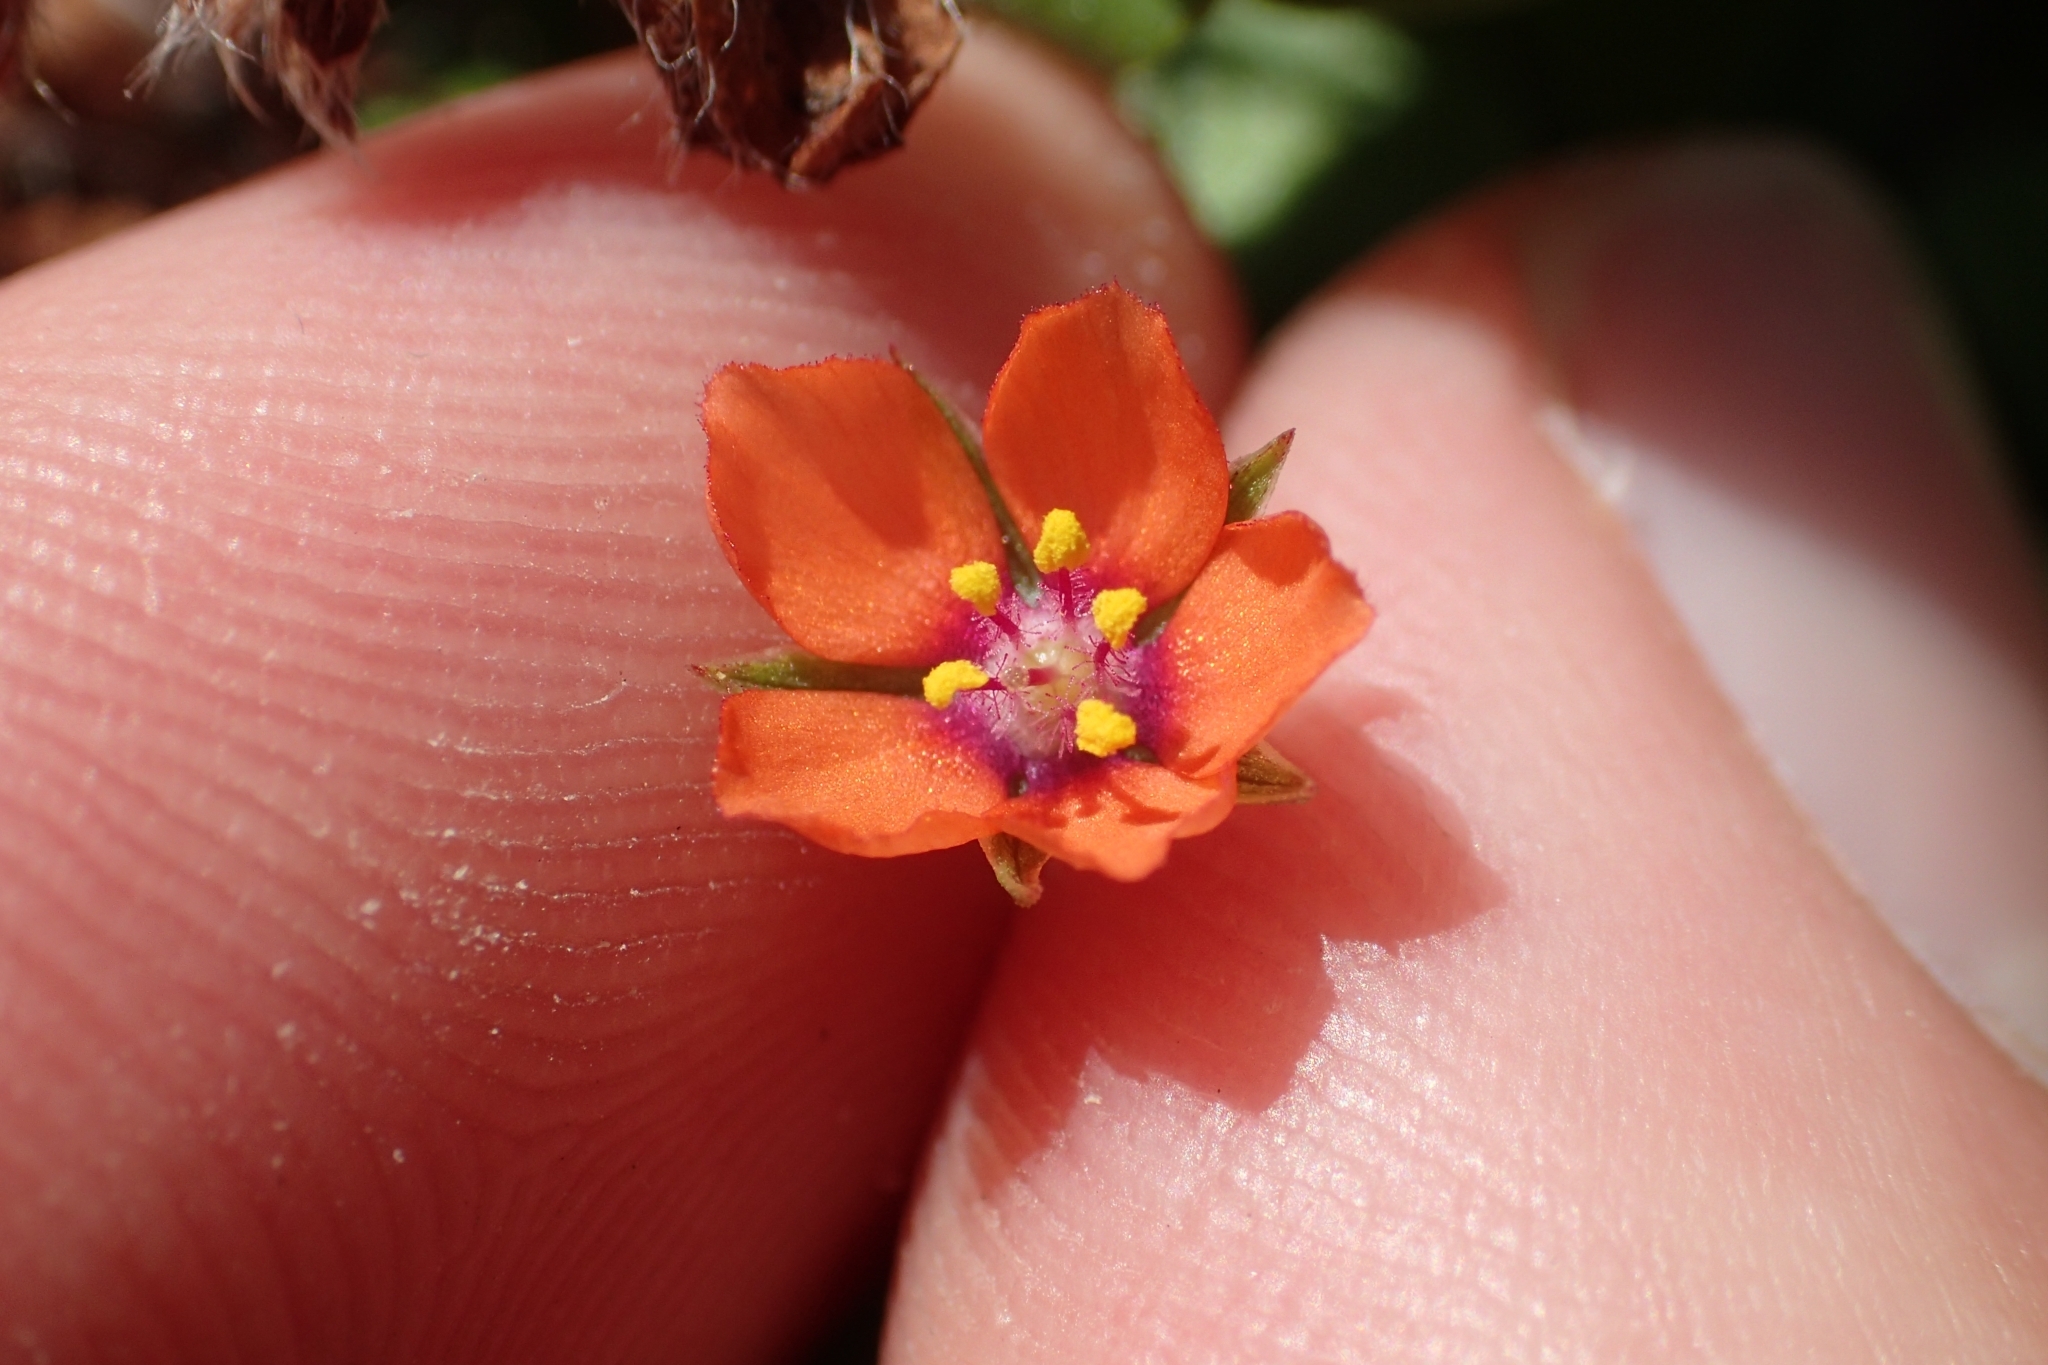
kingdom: Plantae
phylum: Tracheophyta
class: Magnoliopsida
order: Ericales
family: Primulaceae
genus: Lysimachia
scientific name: Lysimachia arvensis
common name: Scarlet pimpernel
